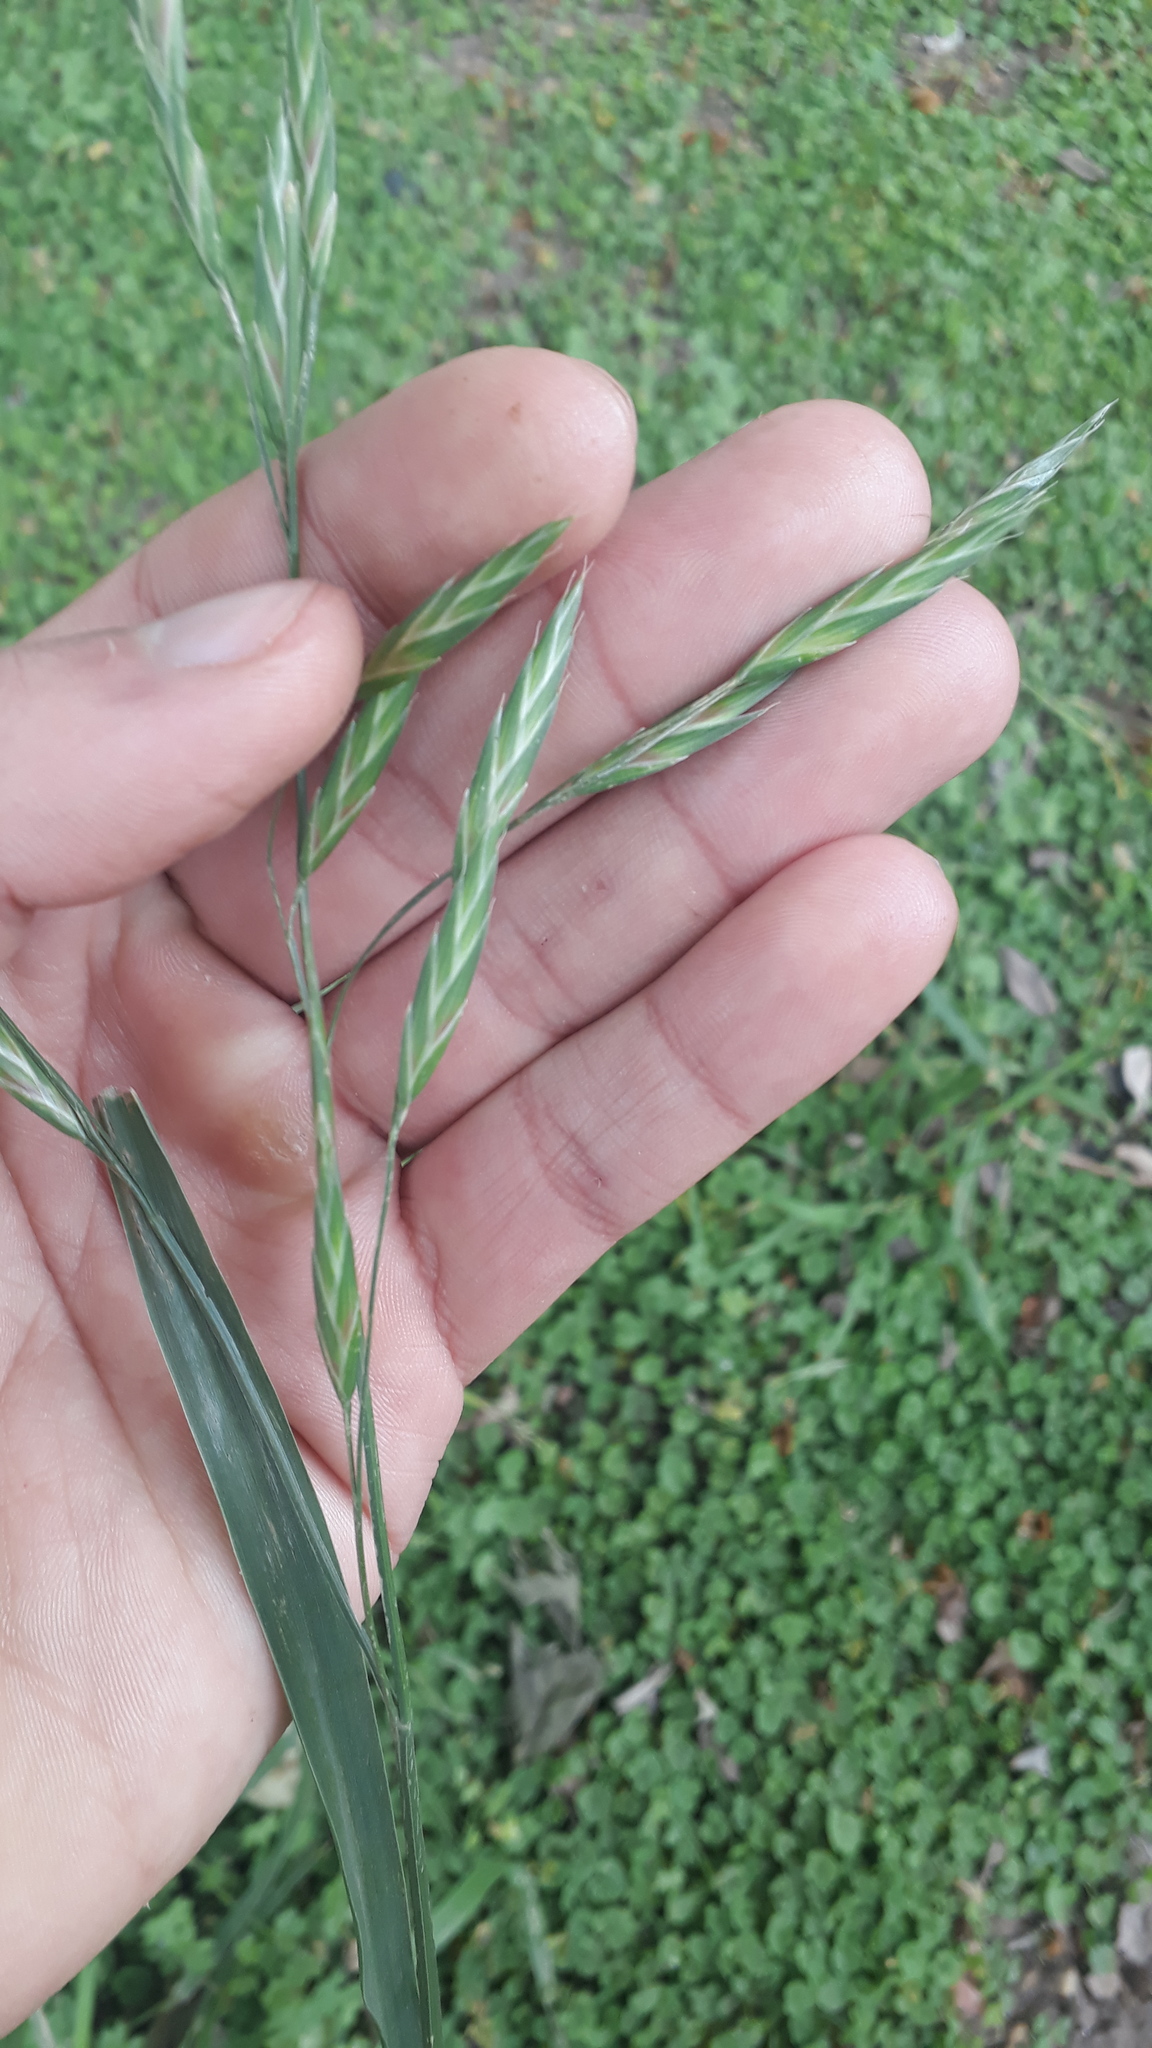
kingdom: Plantae
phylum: Tracheophyta
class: Liliopsida
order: Poales
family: Poaceae
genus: Bromus
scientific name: Bromus catharticus
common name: Rescuegrass
